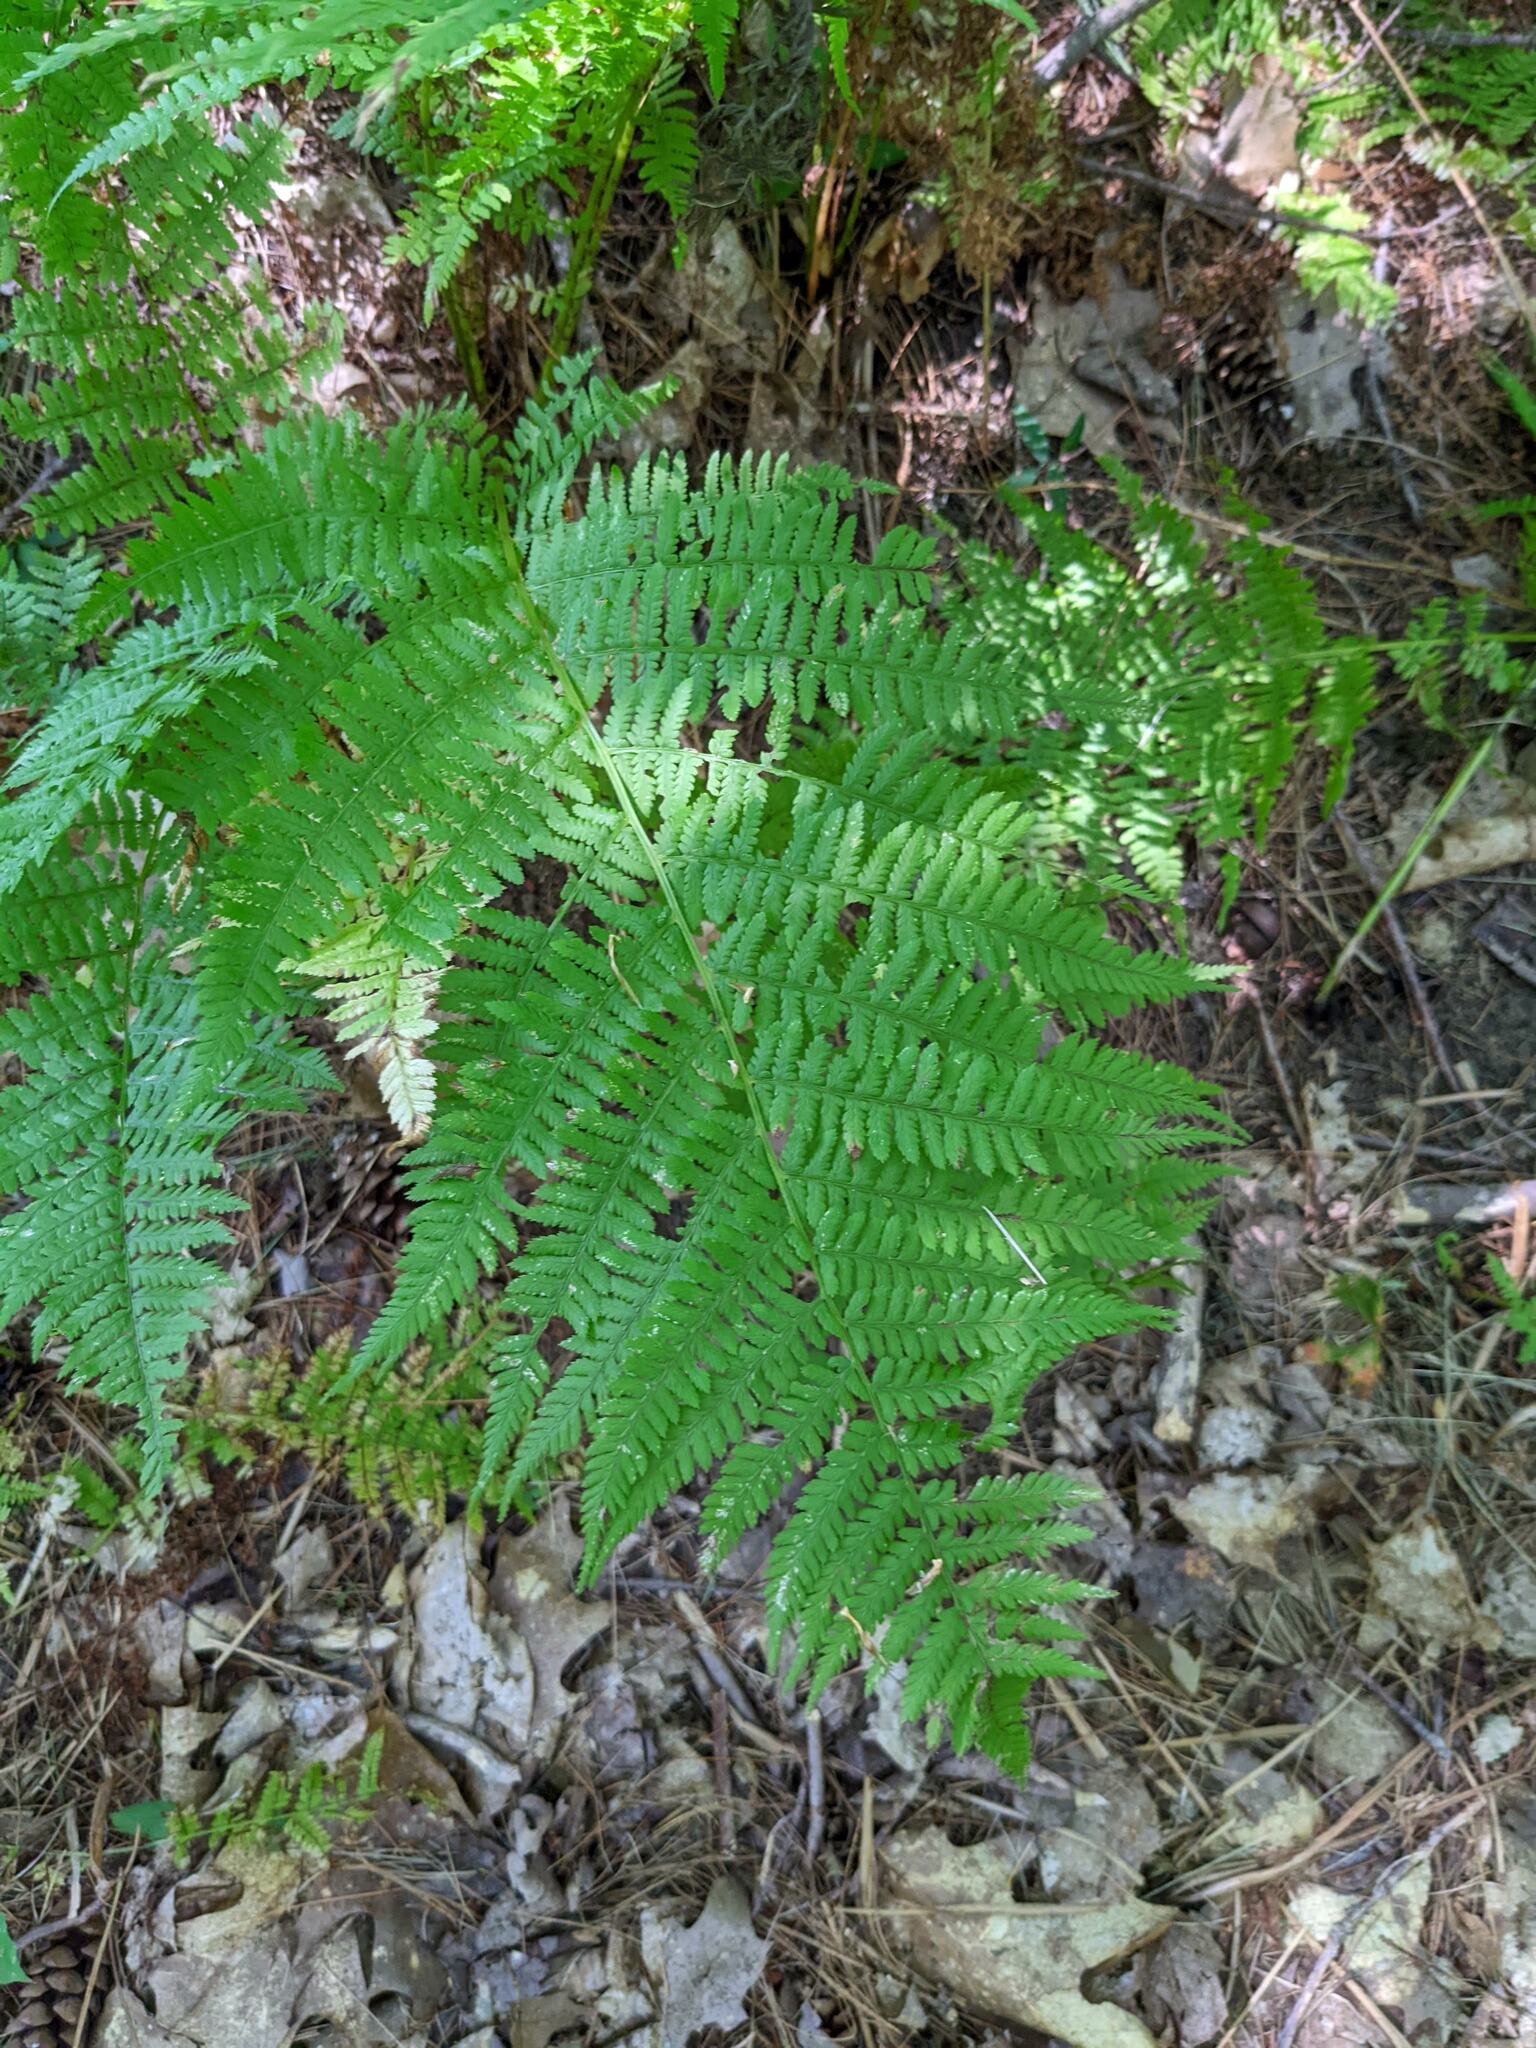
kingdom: Plantae
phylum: Tracheophyta
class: Polypodiopsida
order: Polypodiales
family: Athyriaceae
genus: Athyrium
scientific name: Athyrium angustum
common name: Northern lady fern
